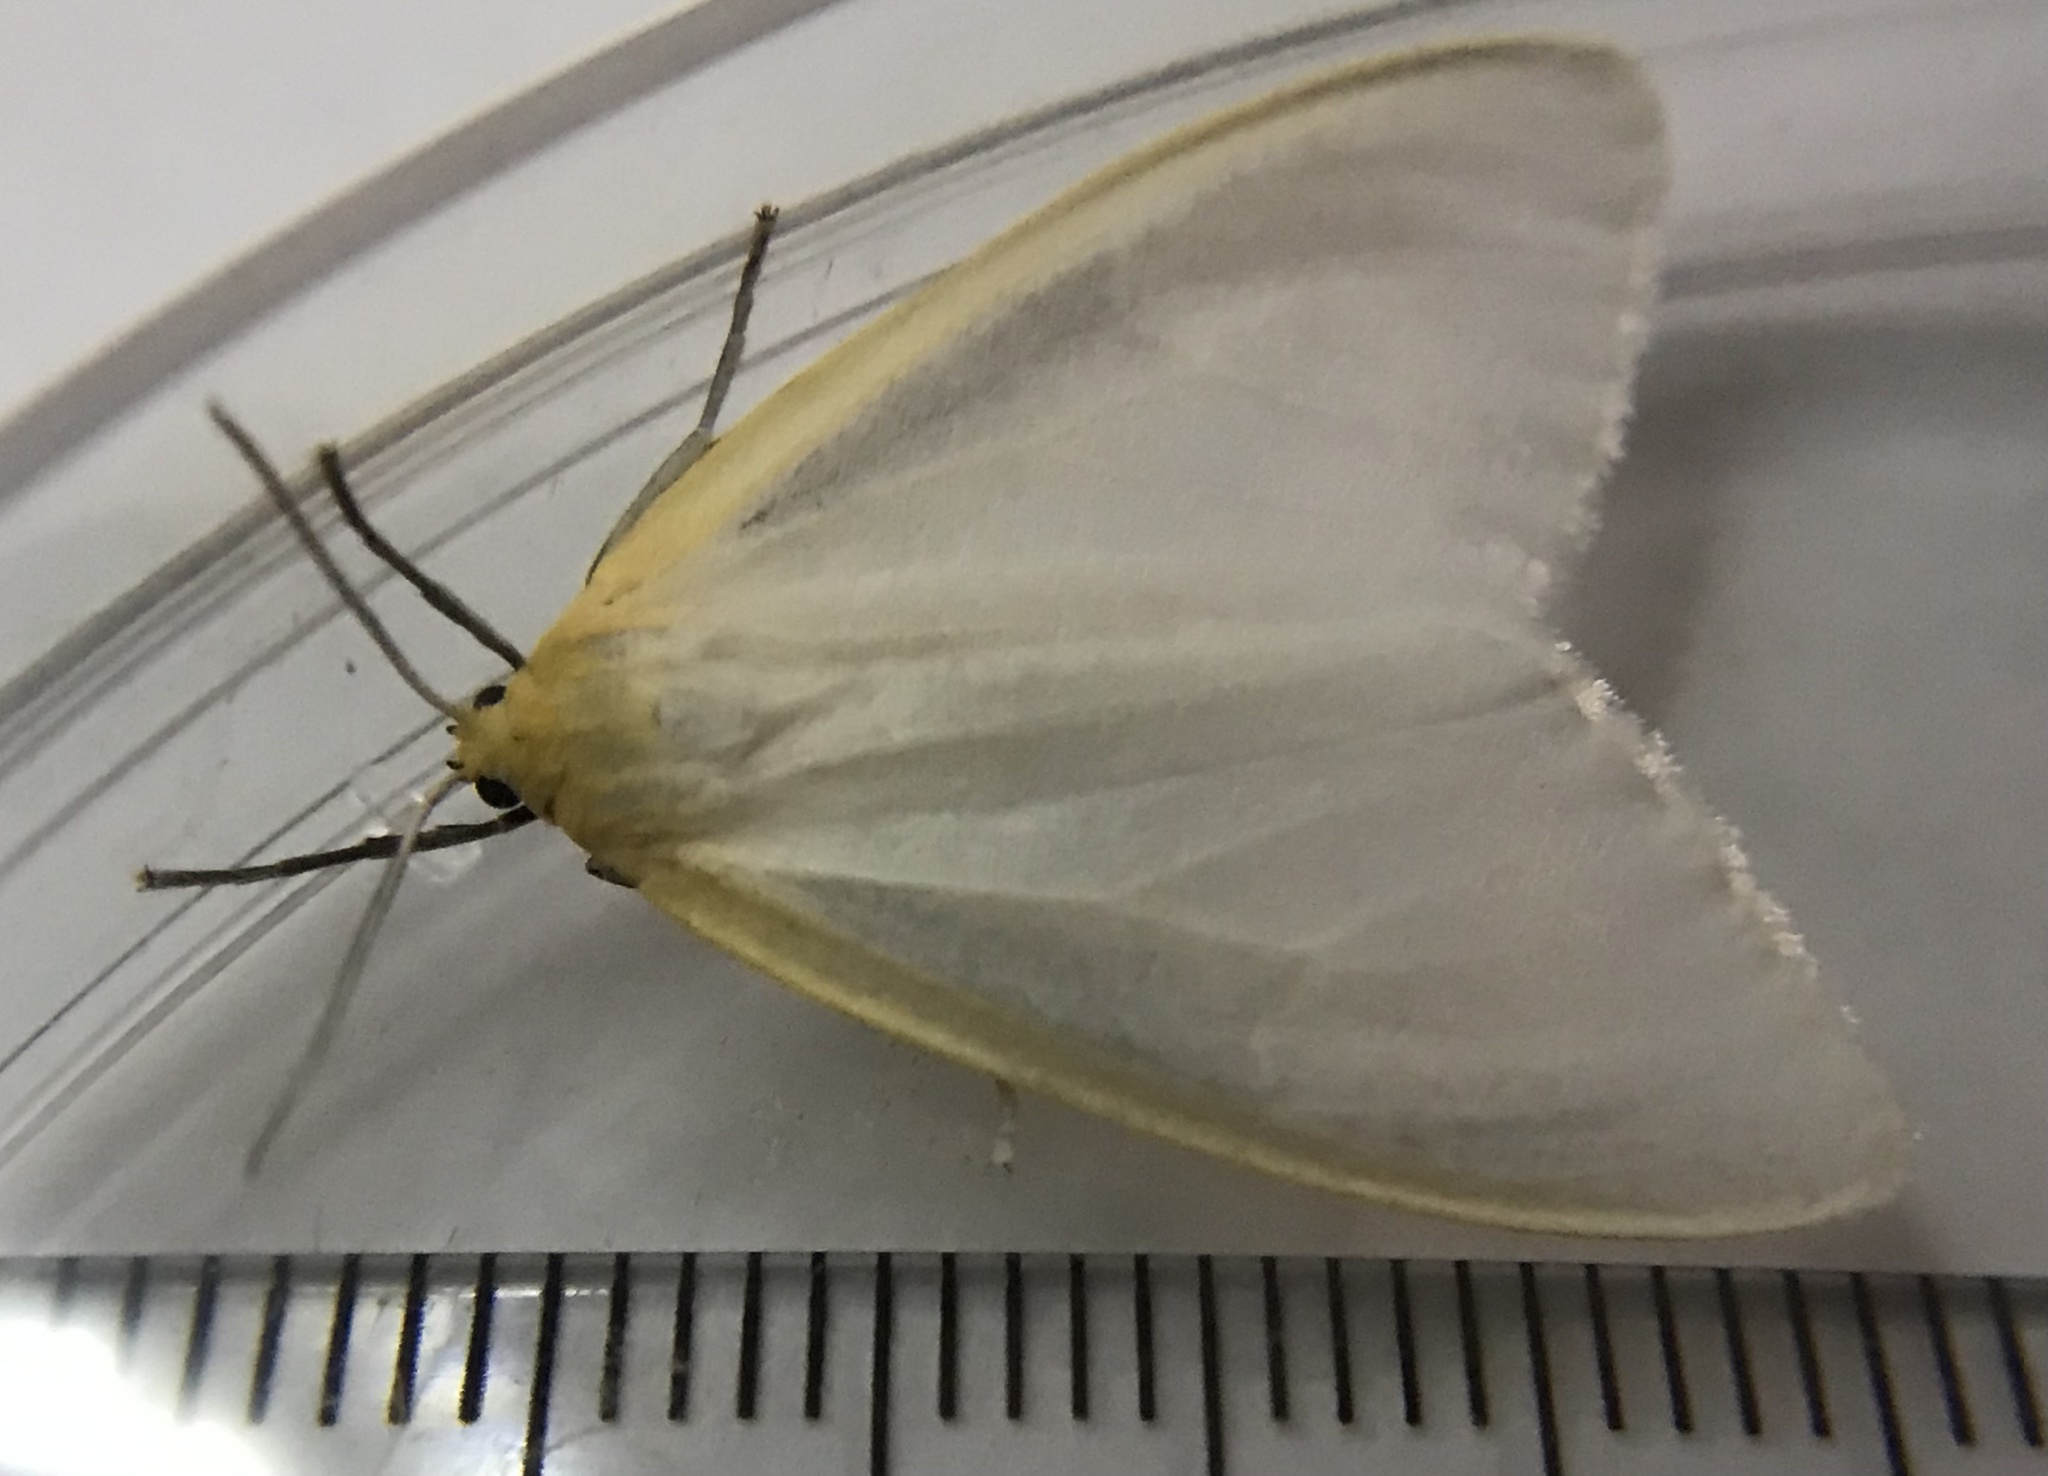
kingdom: Animalia
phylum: Arthropoda
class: Insecta
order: Lepidoptera
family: Erebidae
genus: Cycnia
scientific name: Cycnia tenera
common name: Delicate cycnia moth
